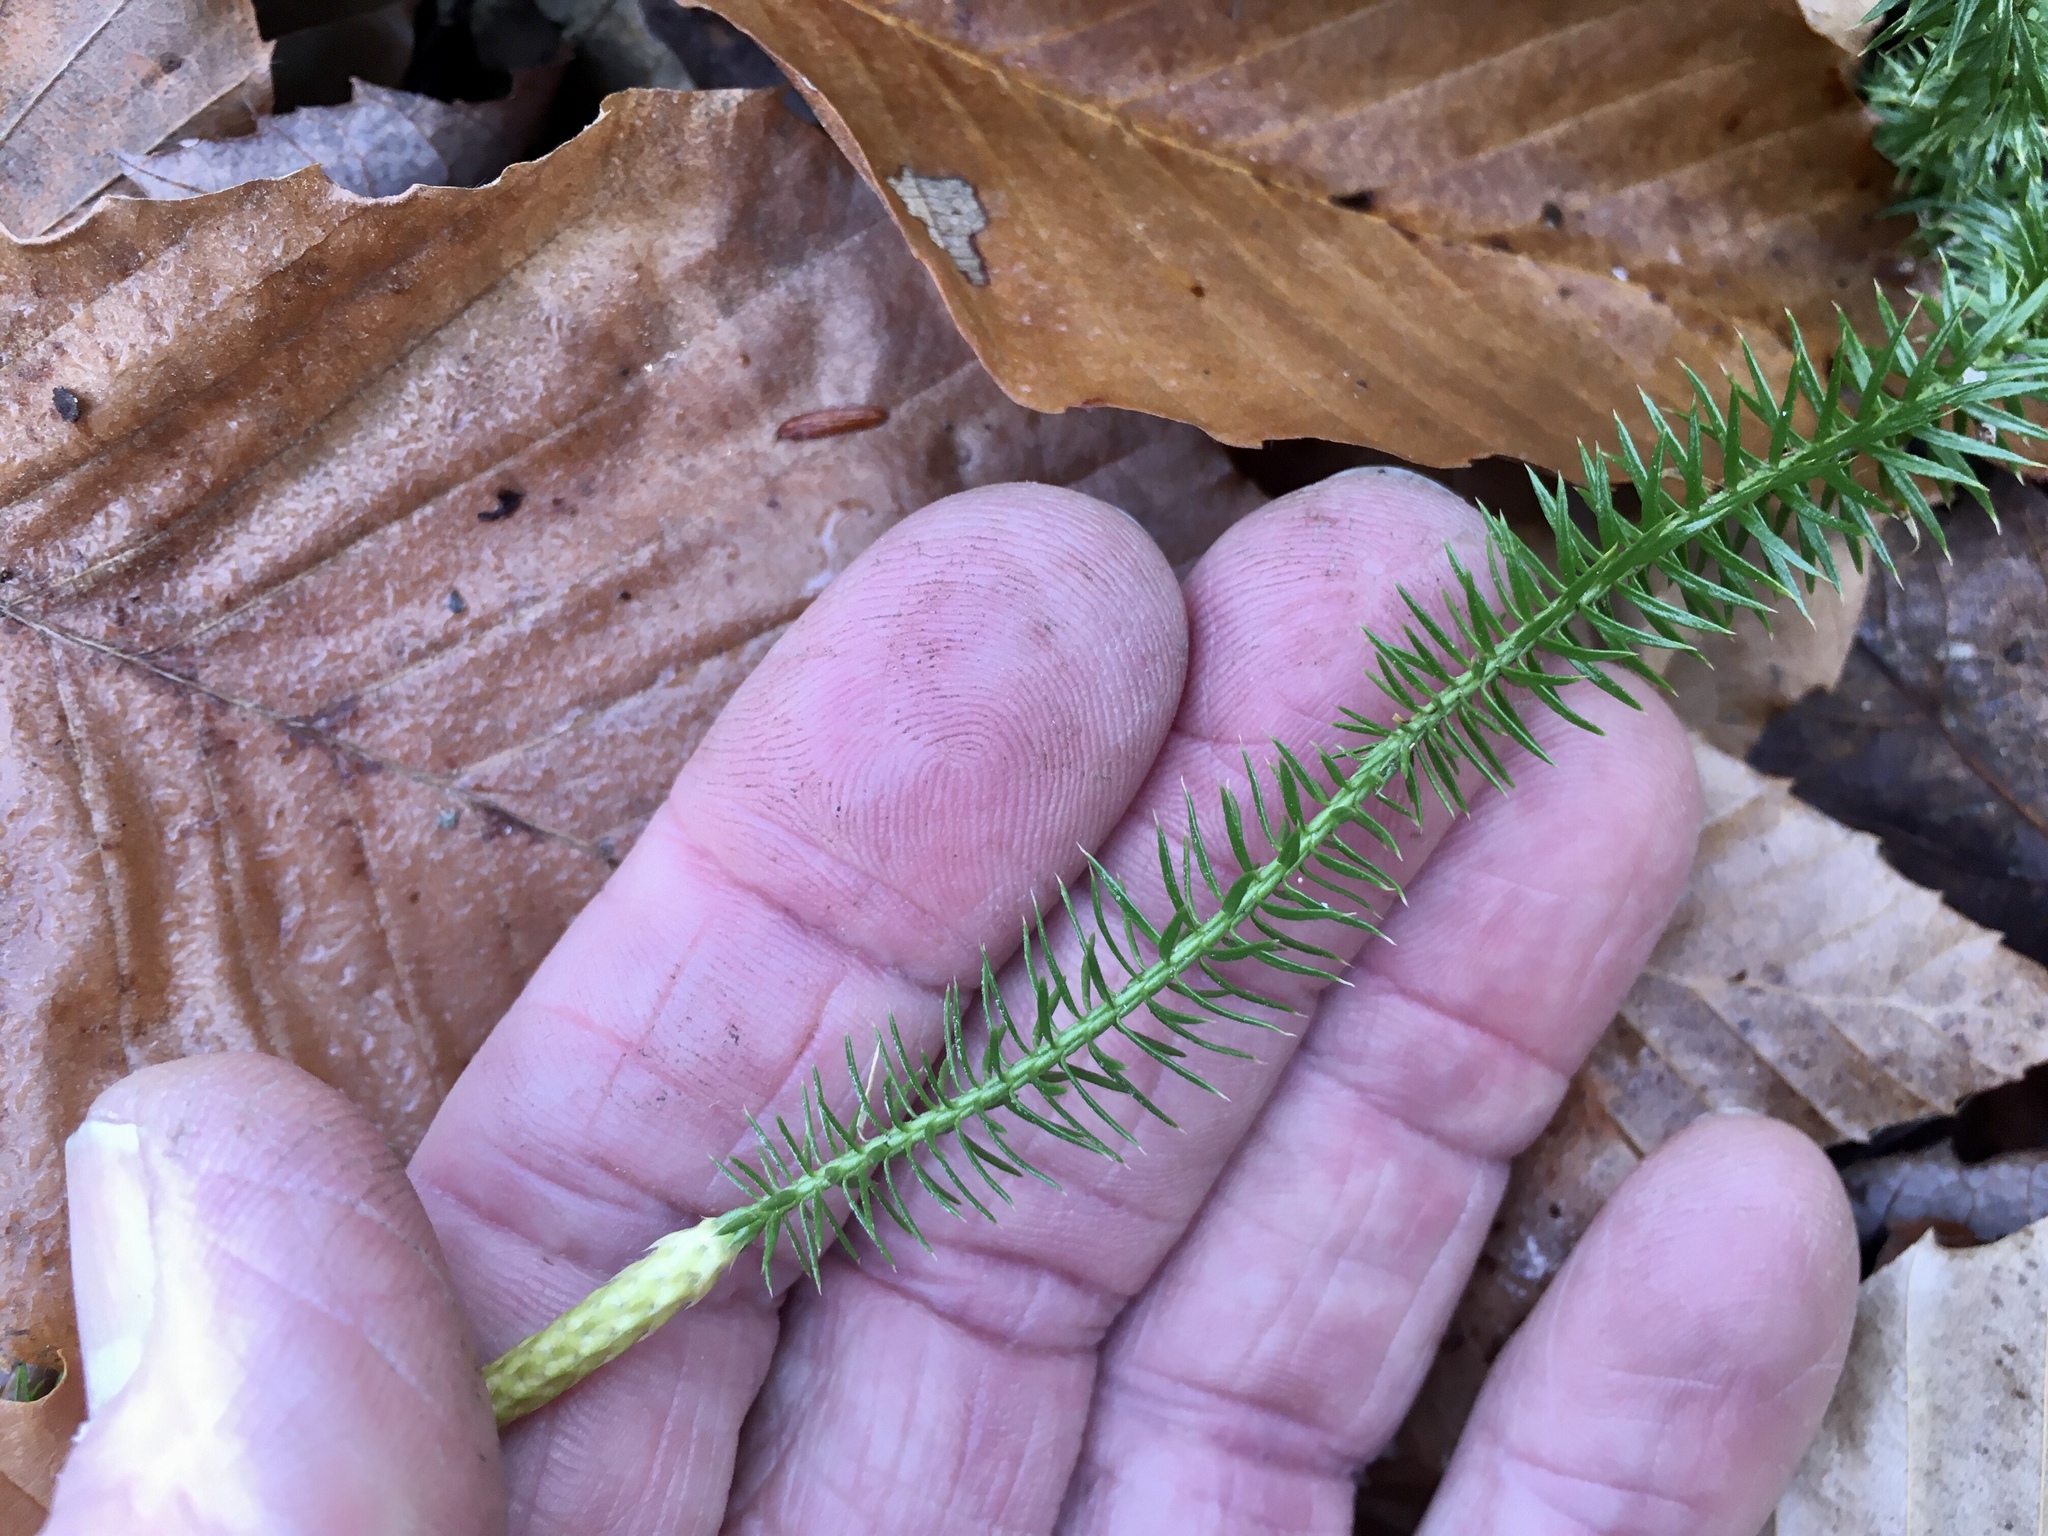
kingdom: Plantae
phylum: Tracheophyta
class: Lycopodiopsida
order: Lycopodiales
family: Lycopodiaceae
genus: Spinulum
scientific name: Spinulum annotinum
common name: Interrupted club-moss
